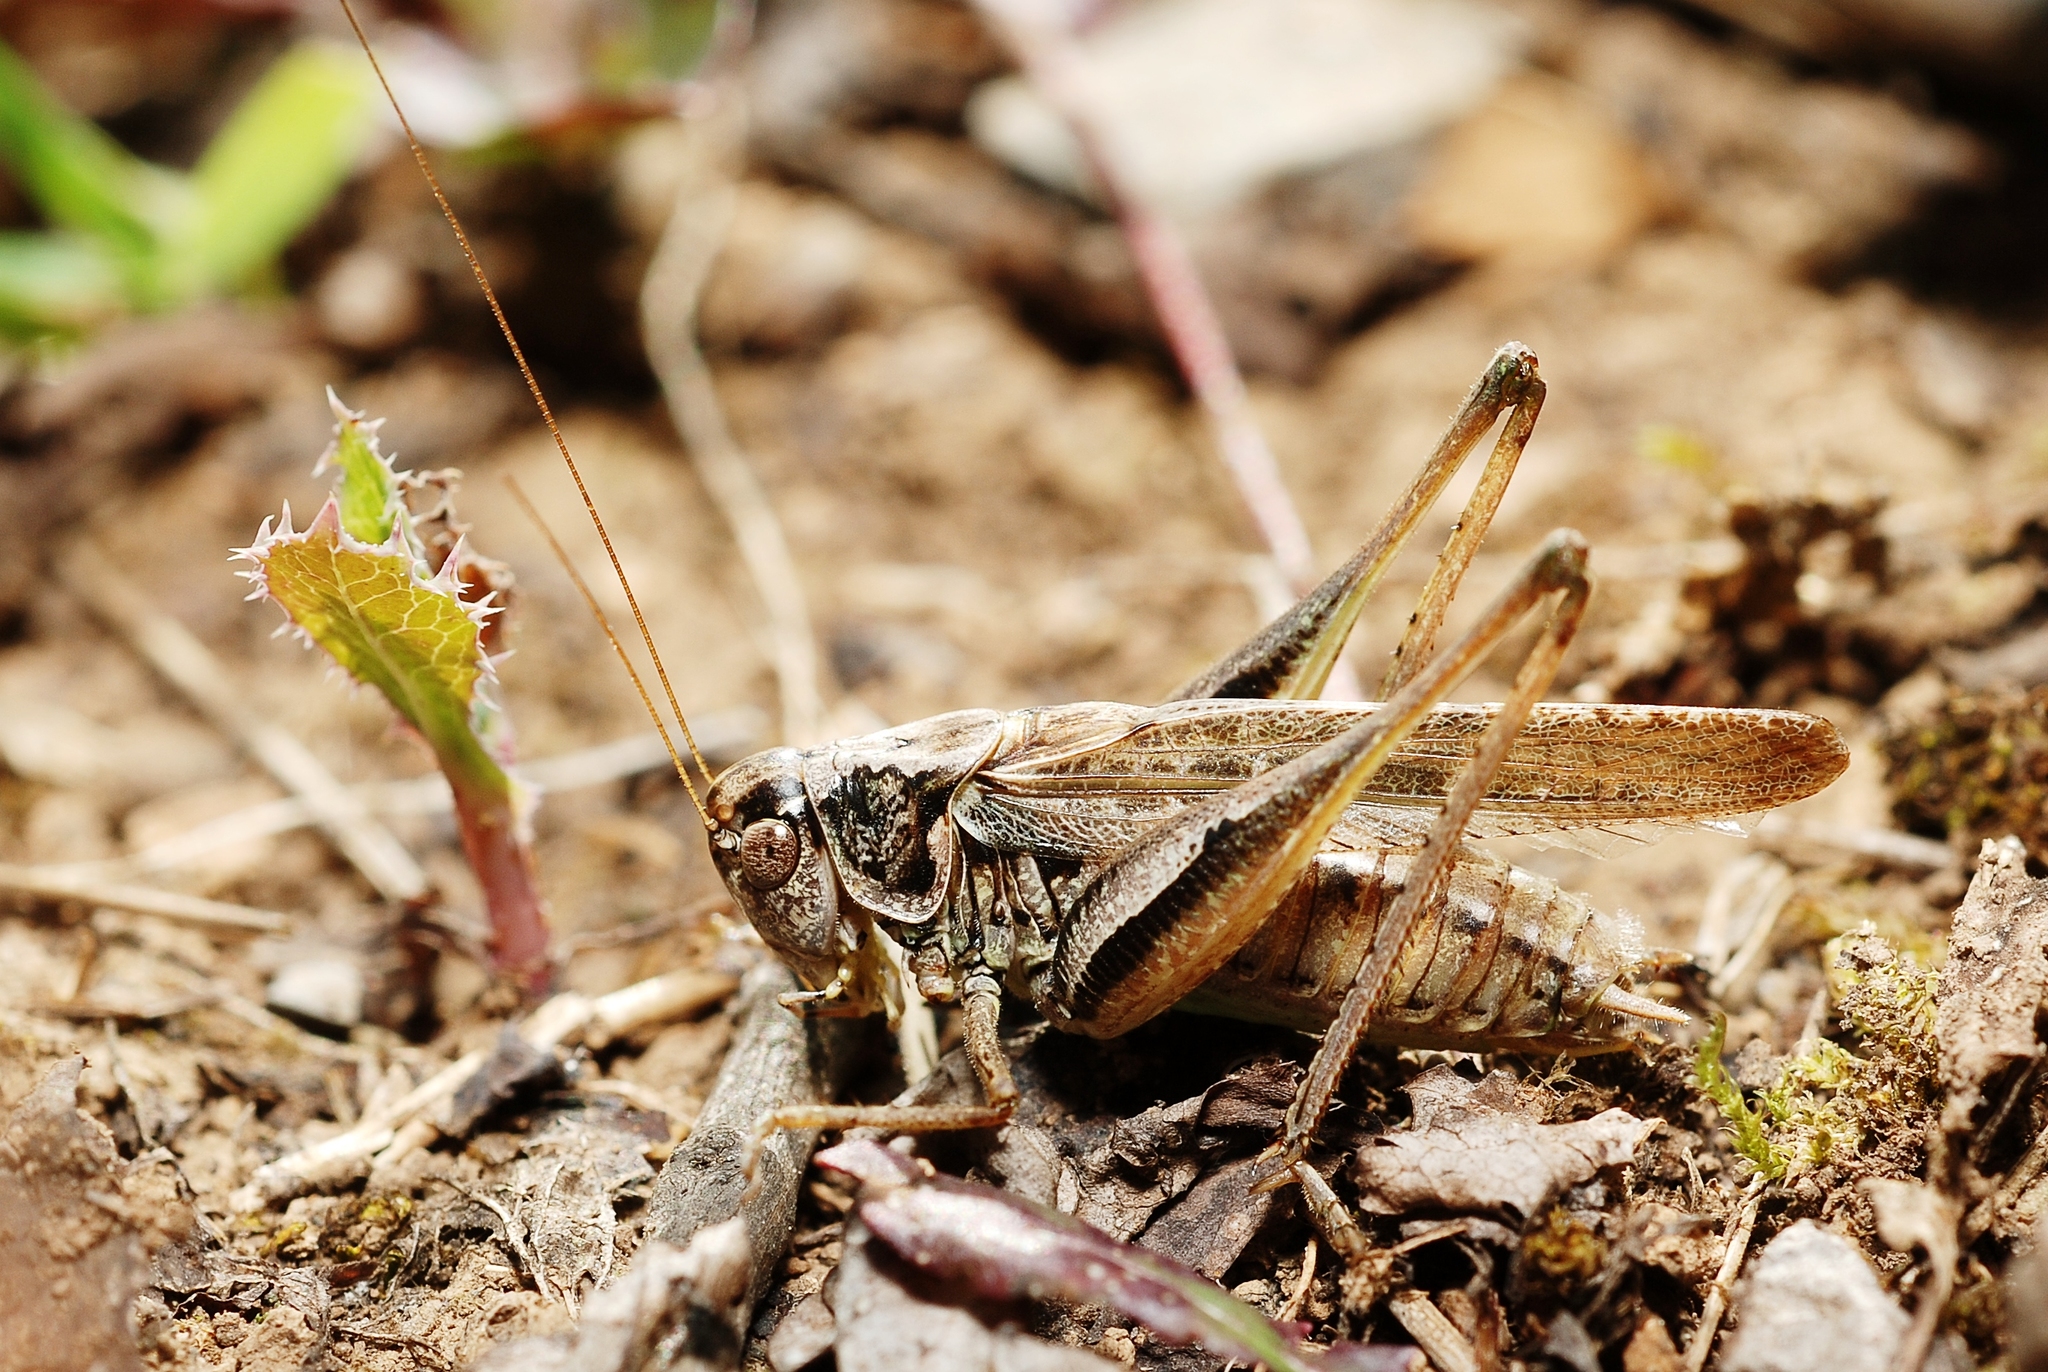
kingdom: Animalia
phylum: Arthropoda
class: Insecta
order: Orthoptera
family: Tettigoniidae
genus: Platycleis
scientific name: Platycleis albopunctata
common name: Grey bush-cricket
